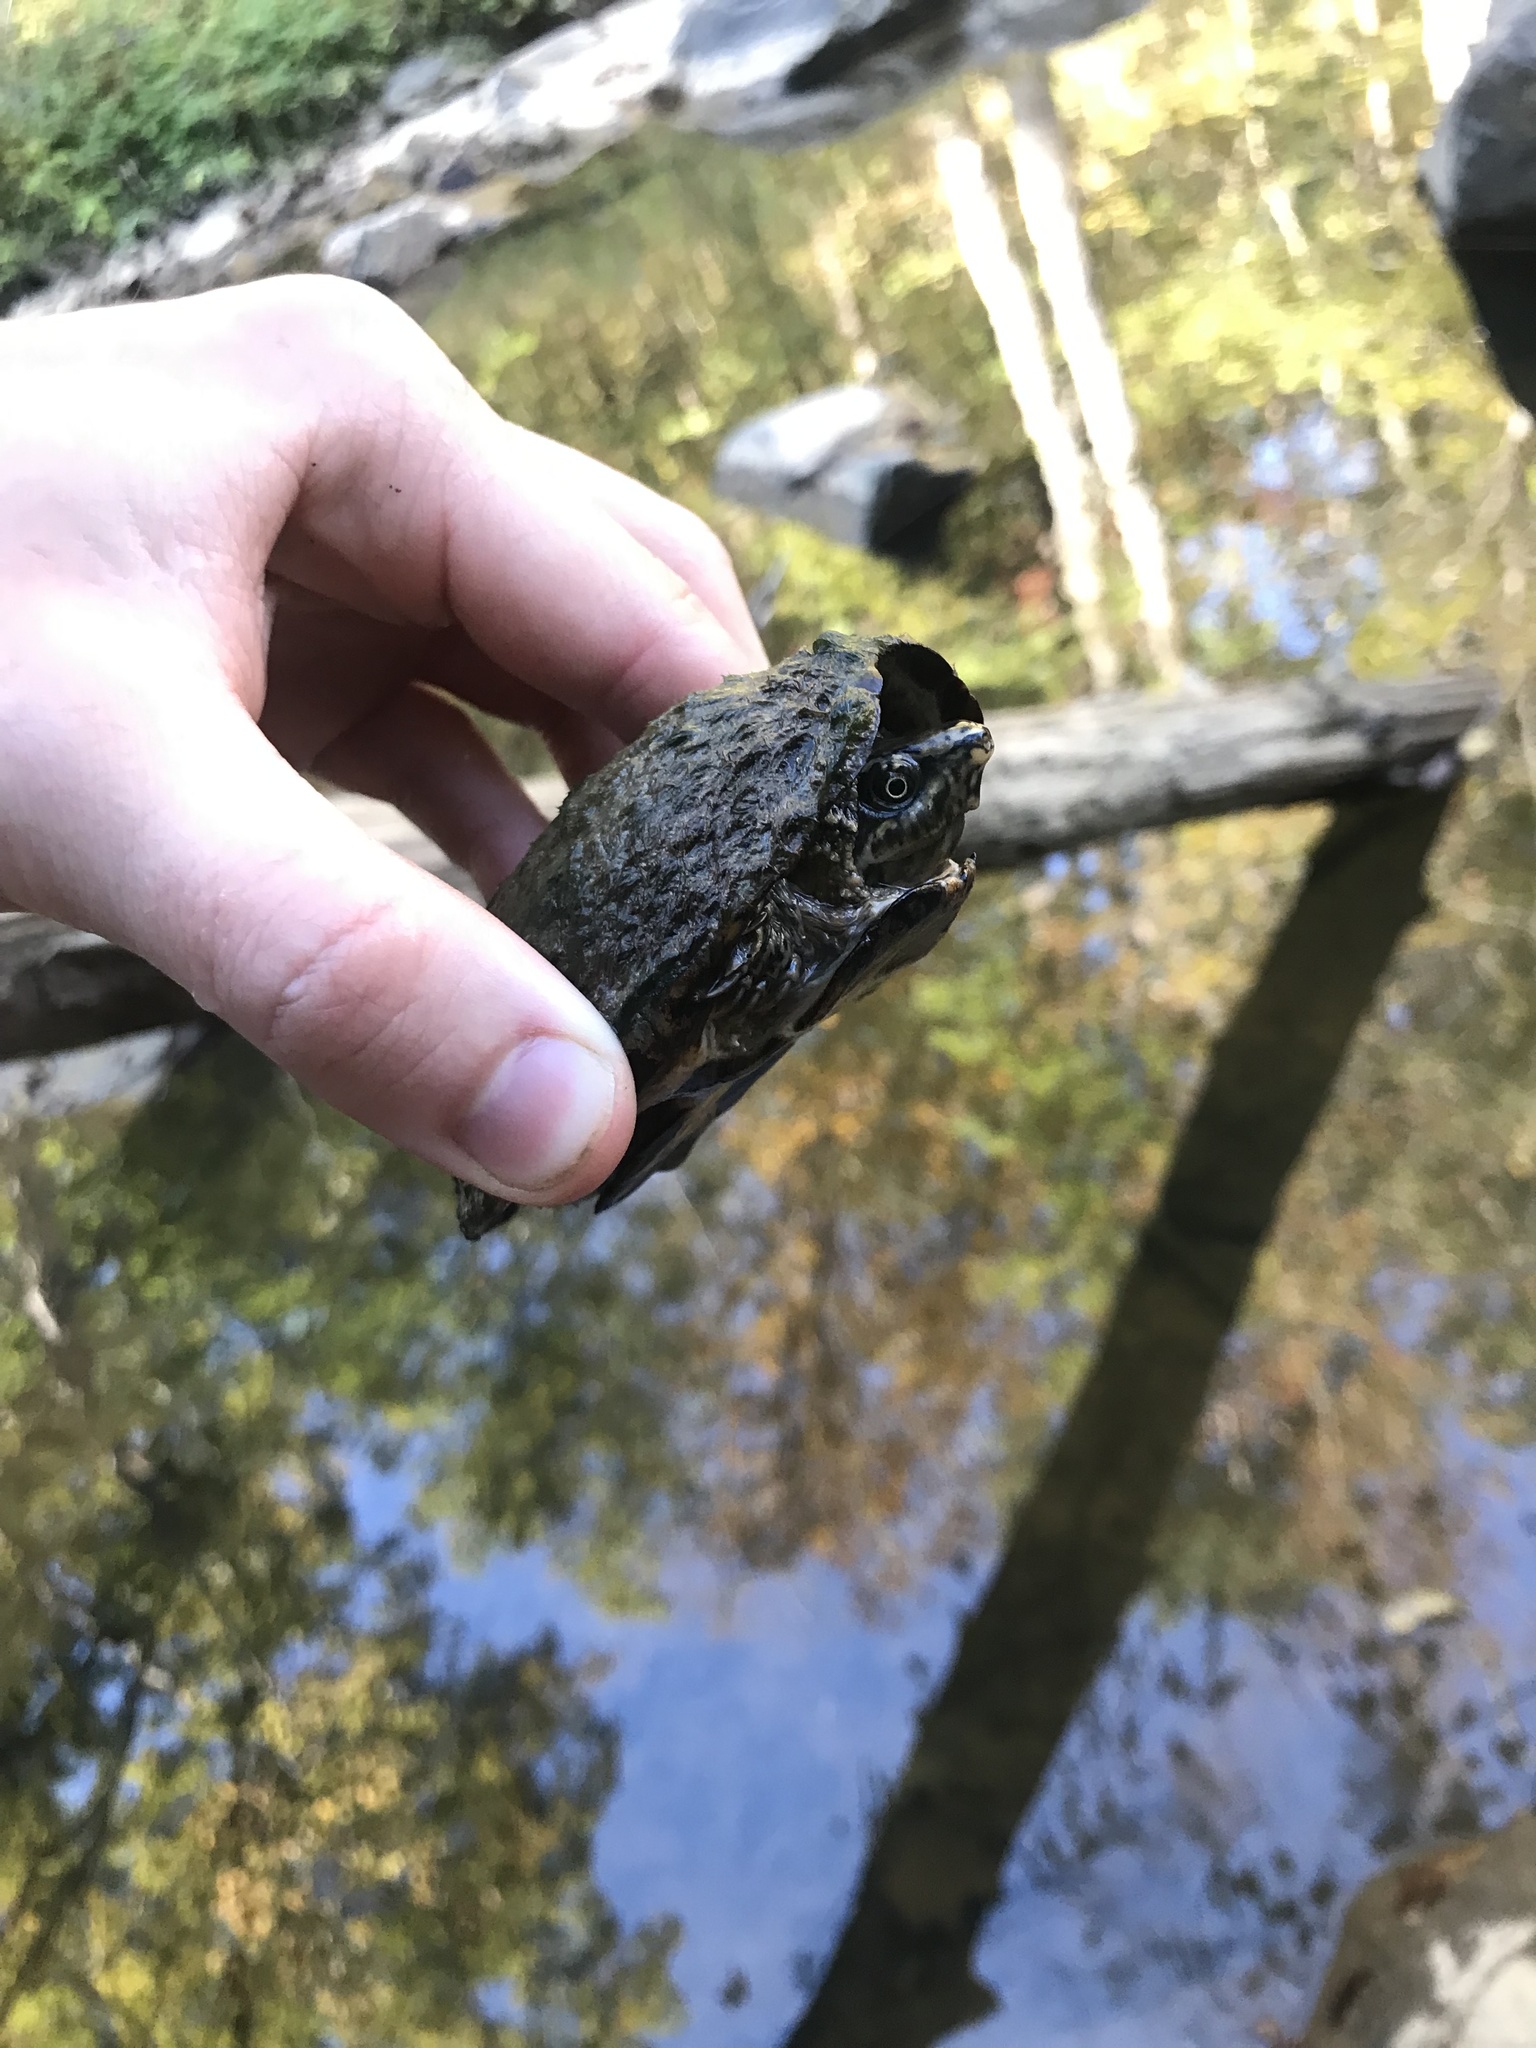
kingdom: Animalia
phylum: Chordata
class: Testudines
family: Kinosternidae
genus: Sternotherus
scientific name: Sternotherus odoratus
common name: Common musk turtle
